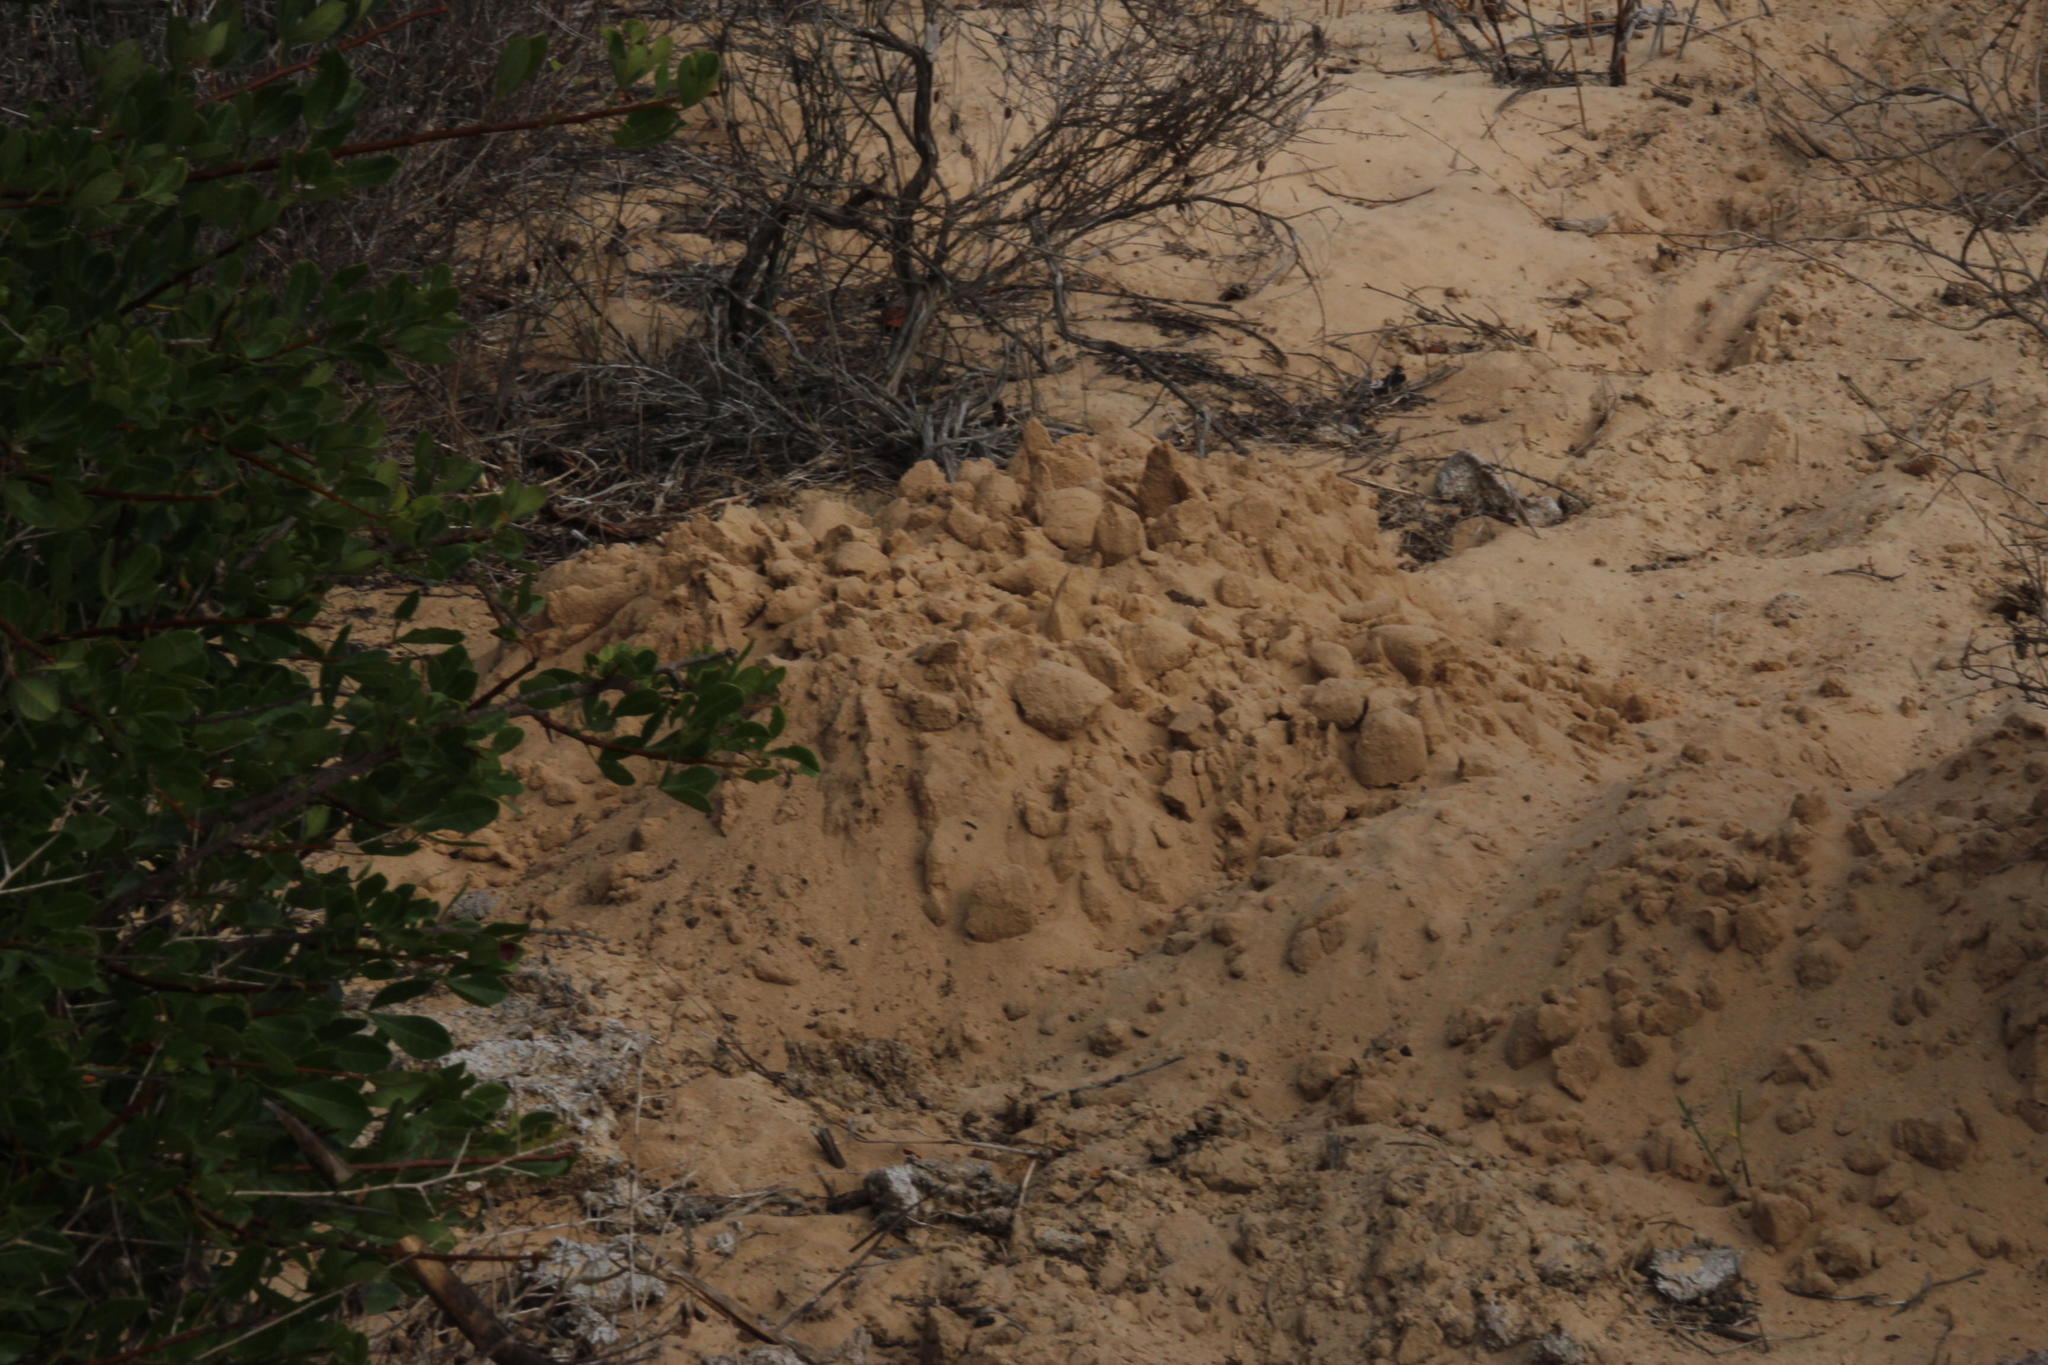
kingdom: Animalia
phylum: Chordata
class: Mammalia
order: Rodentia
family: Bathyergidae
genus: Bathyergus
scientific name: Bathyergus suillus
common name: Cape dune mole rat
